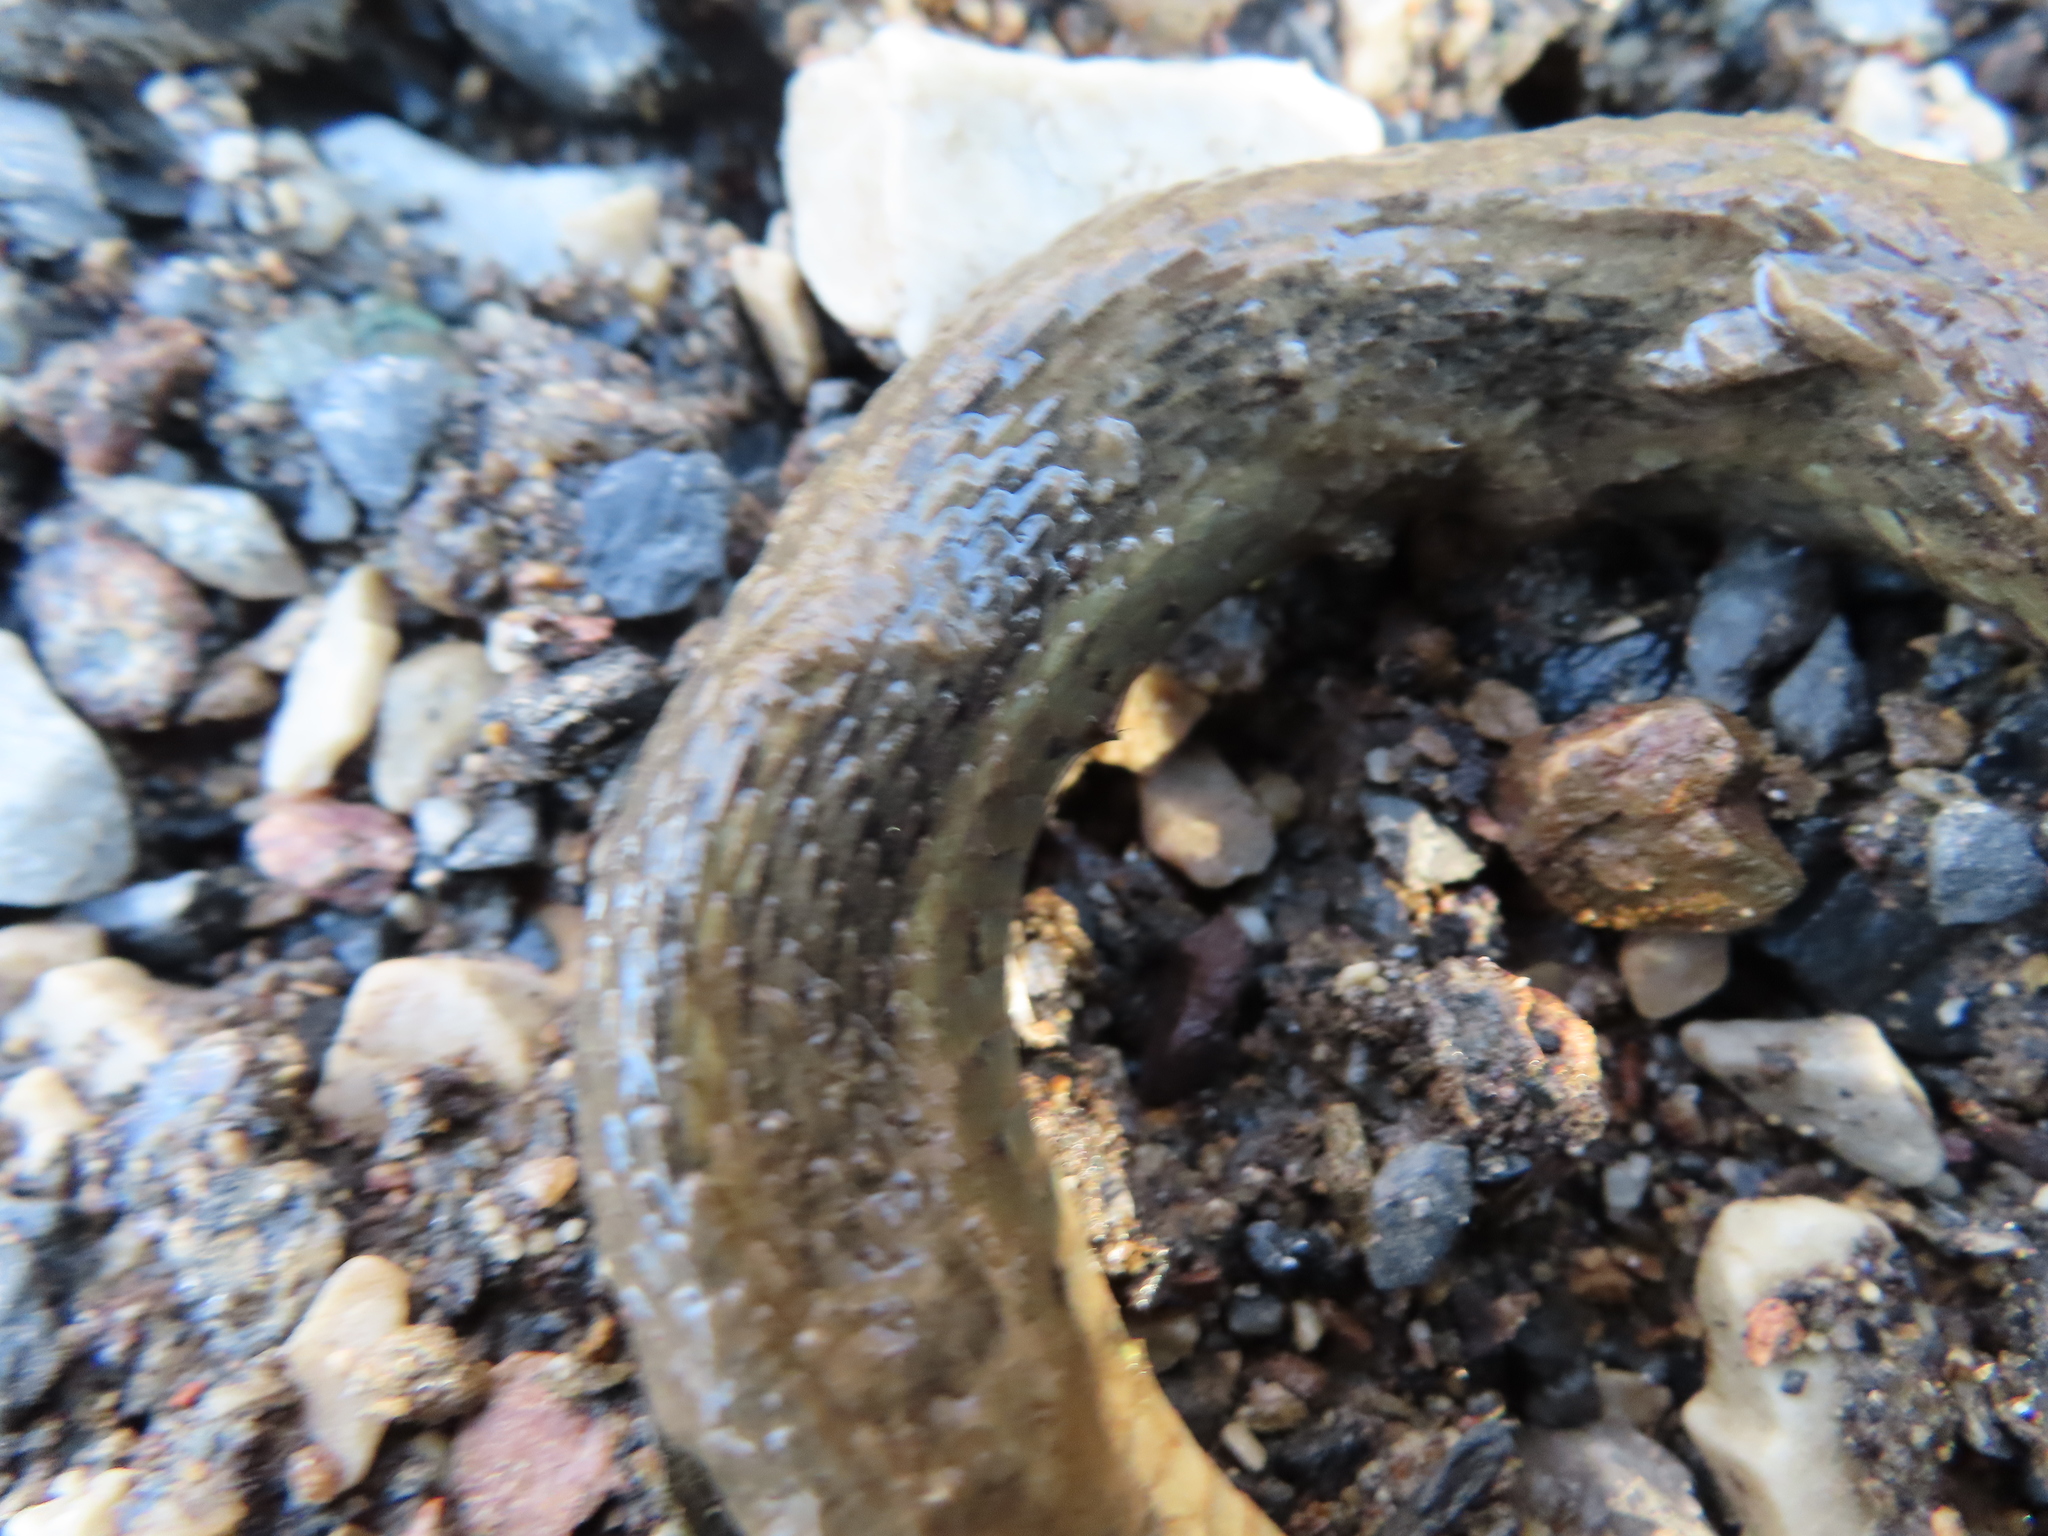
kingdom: Animalia
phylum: Chordata
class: Squamata
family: Colubridae
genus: Thamnophis
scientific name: Thamnophis sirtalis
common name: Common garter snake
